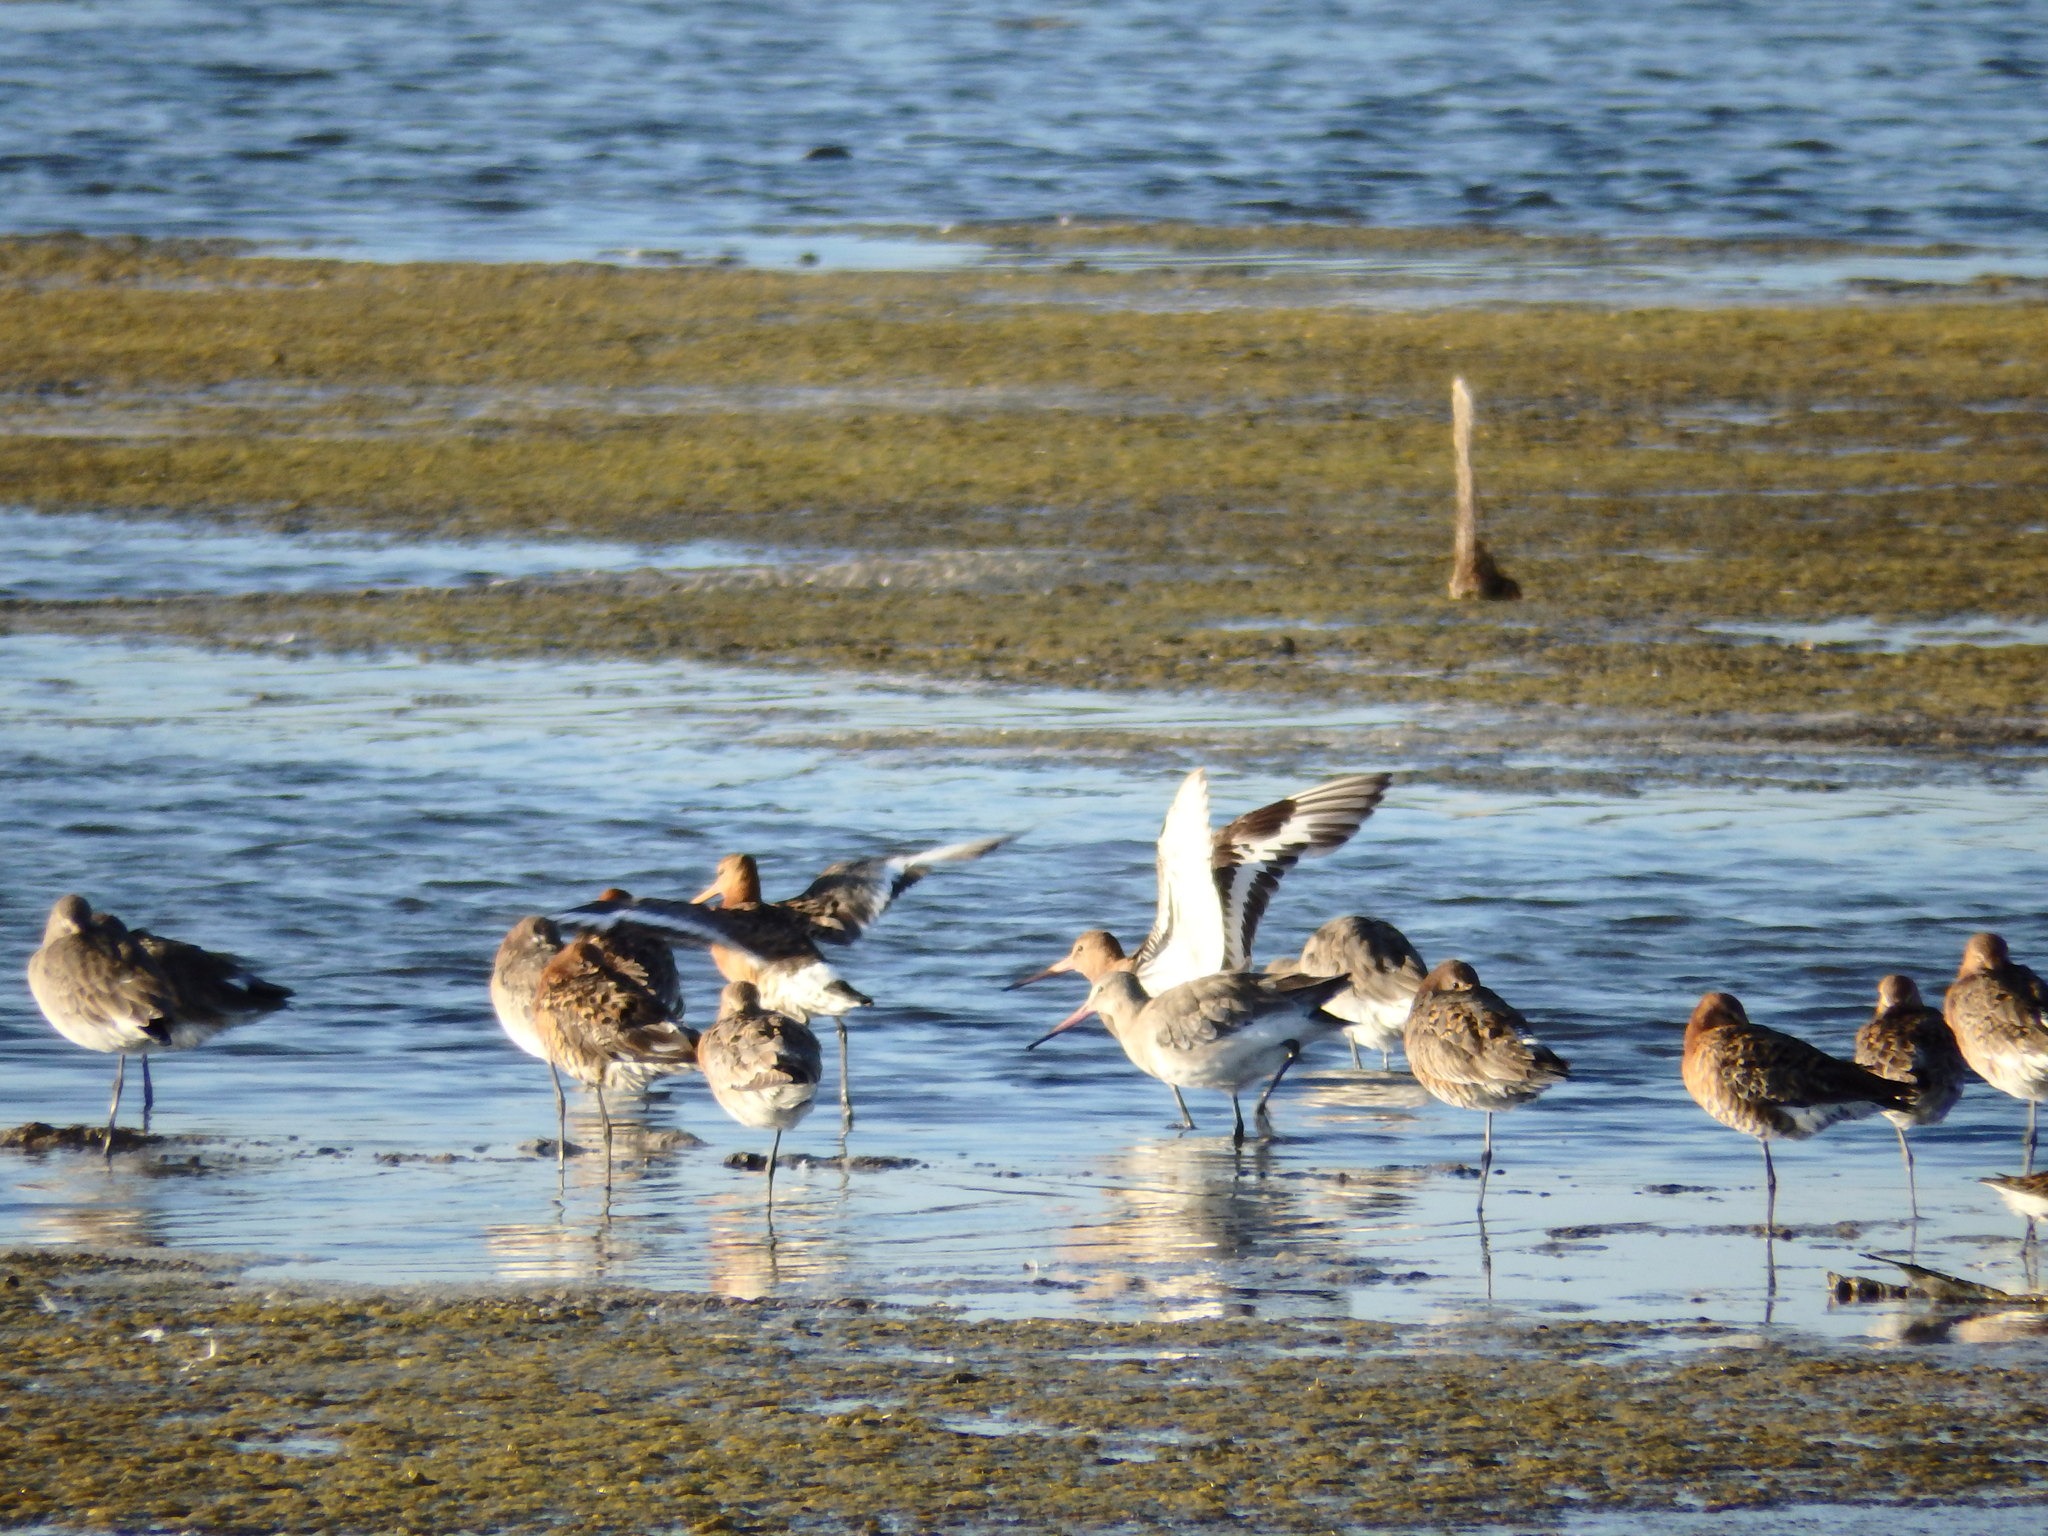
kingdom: Animalia
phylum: Chordata
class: Aves
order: Charadriiformes
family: Scolopacidae
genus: Limosa
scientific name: Limosa limosa
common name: Black-tailed godwit
